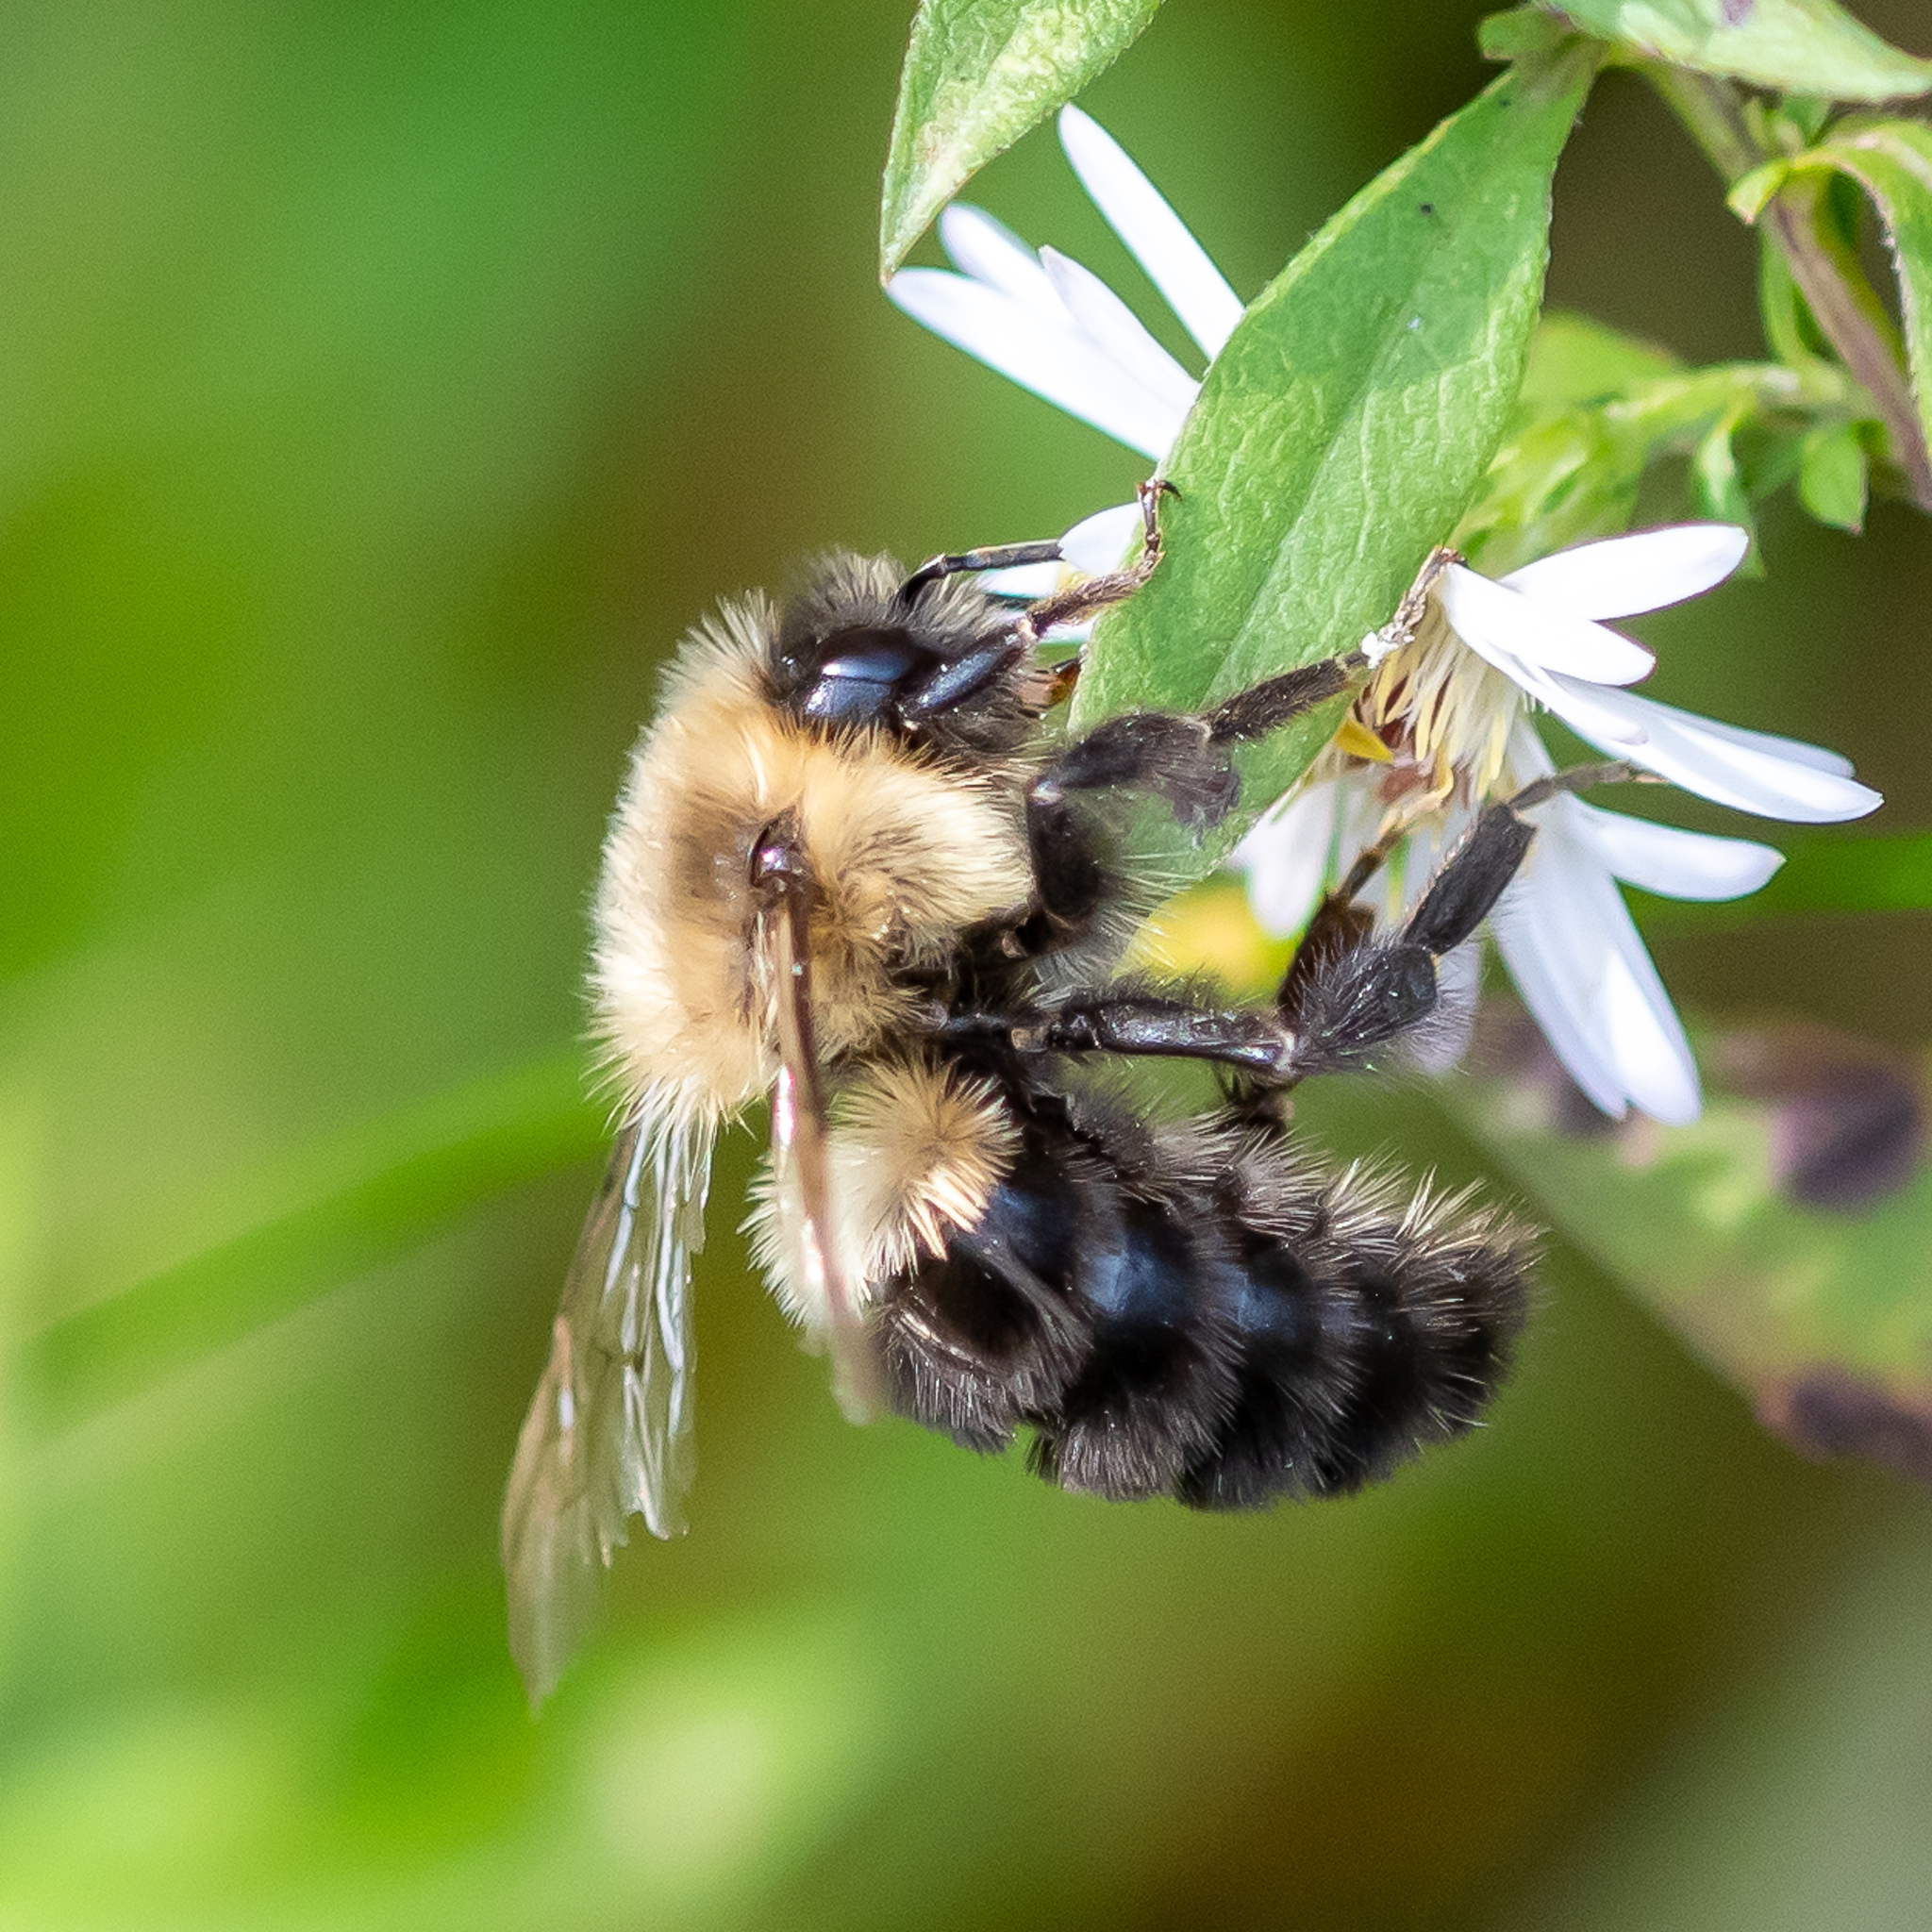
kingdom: Animalia
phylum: Arthropoda
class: Insecta
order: Hymenoptera
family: Apidae
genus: Bombus
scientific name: Bombus impatiens
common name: Common eastern bumble bee
